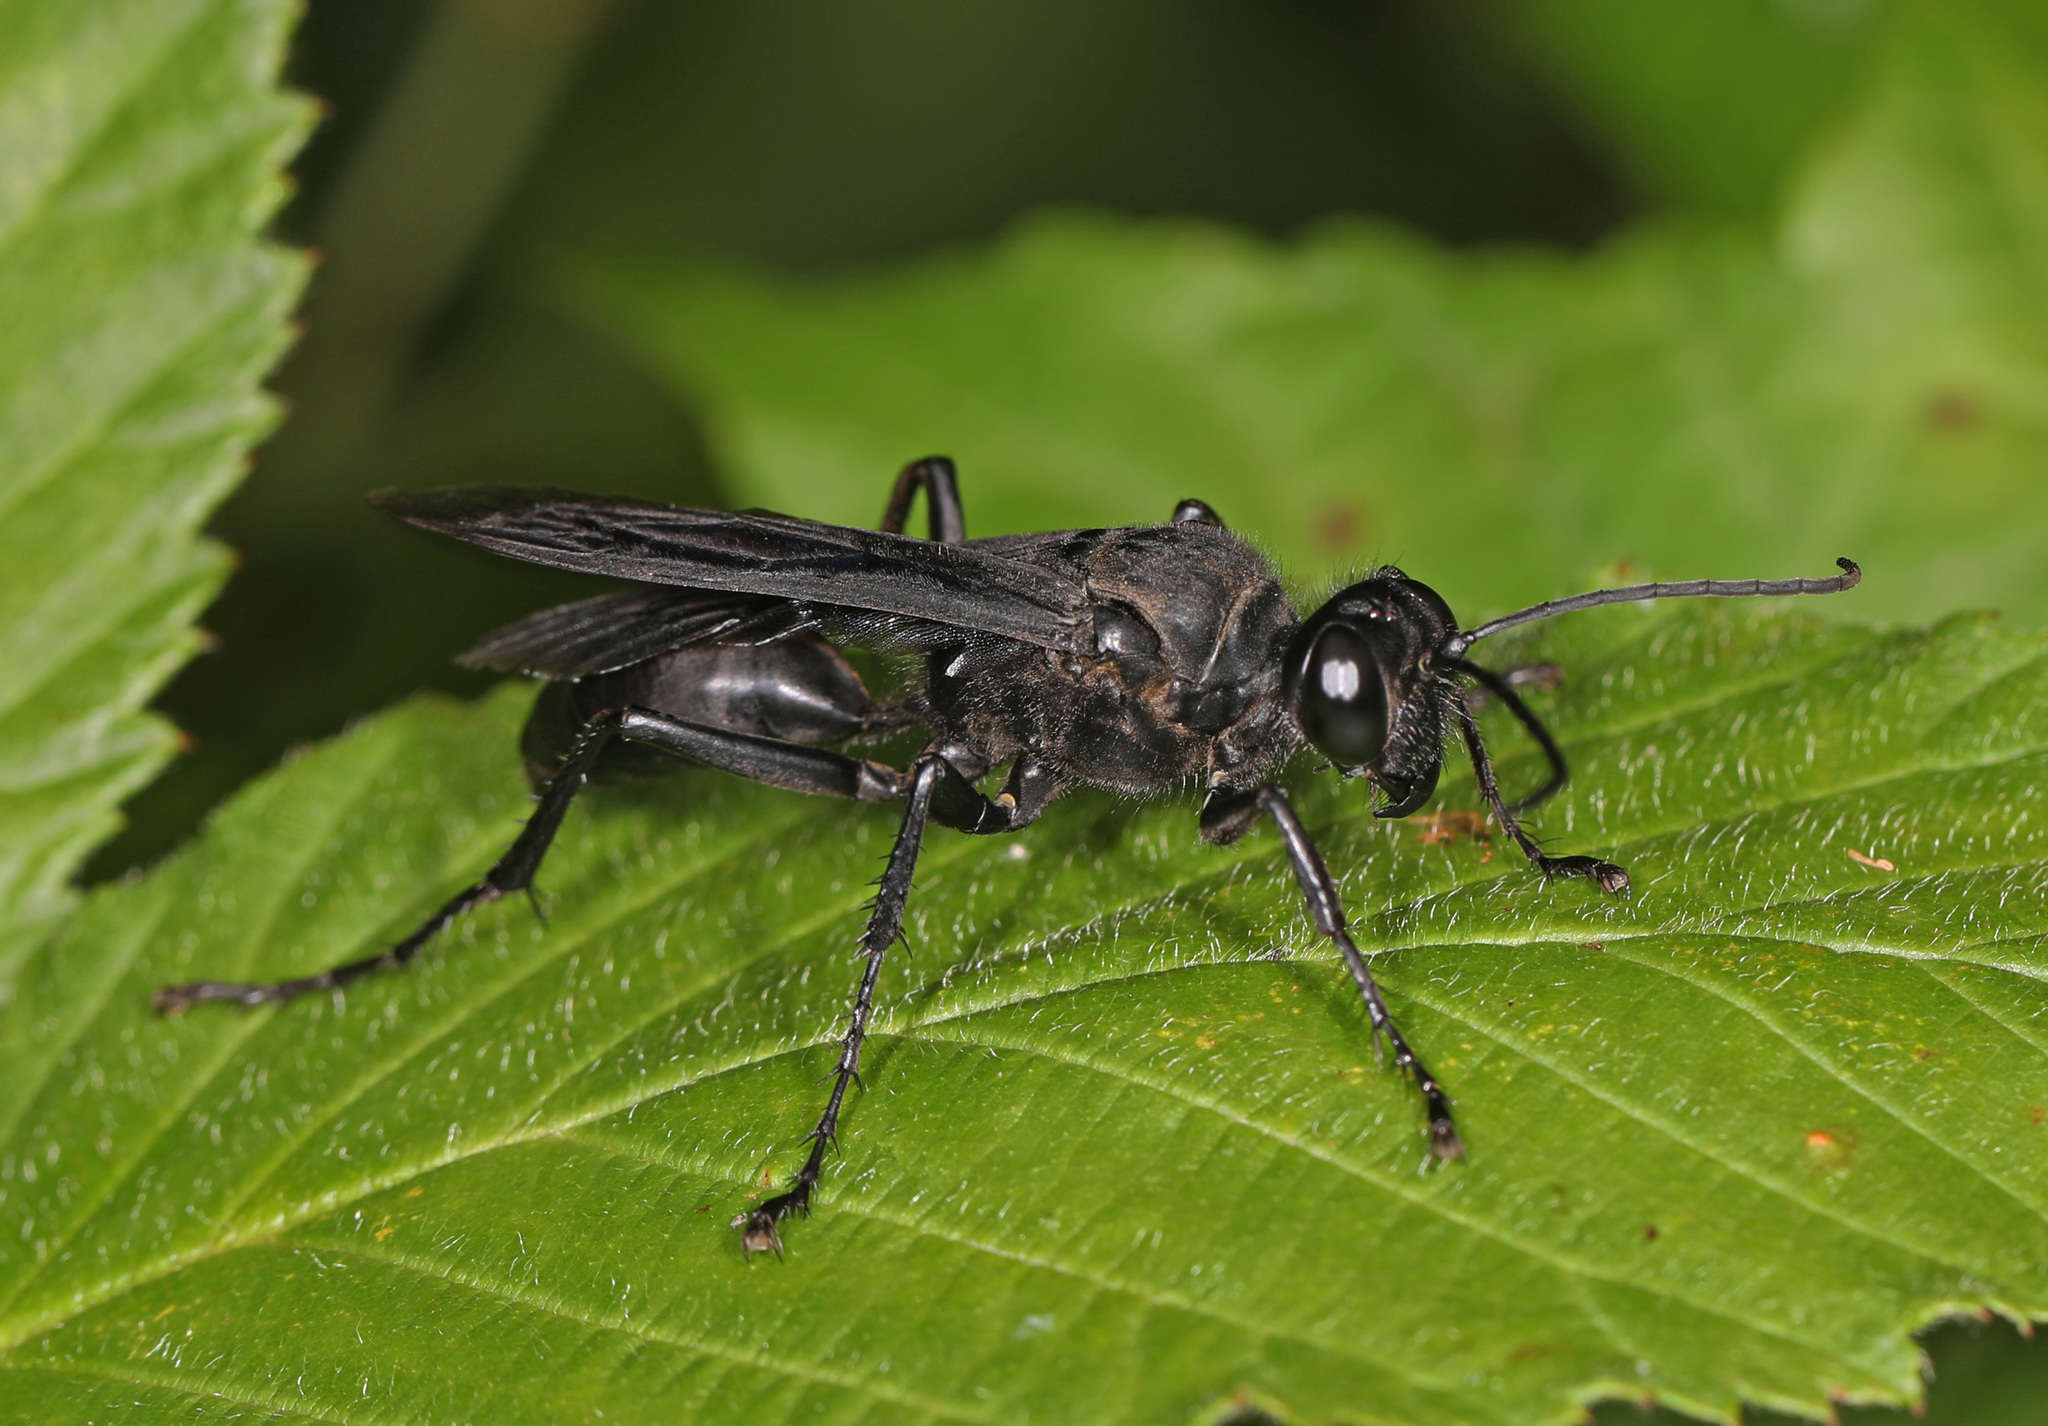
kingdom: Animalia
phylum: Arthropoda
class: Insecta
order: Hymenoptera
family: Sphecidae
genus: Sphex
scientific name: Sphex pensylvanicus
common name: Great black digger wasp
